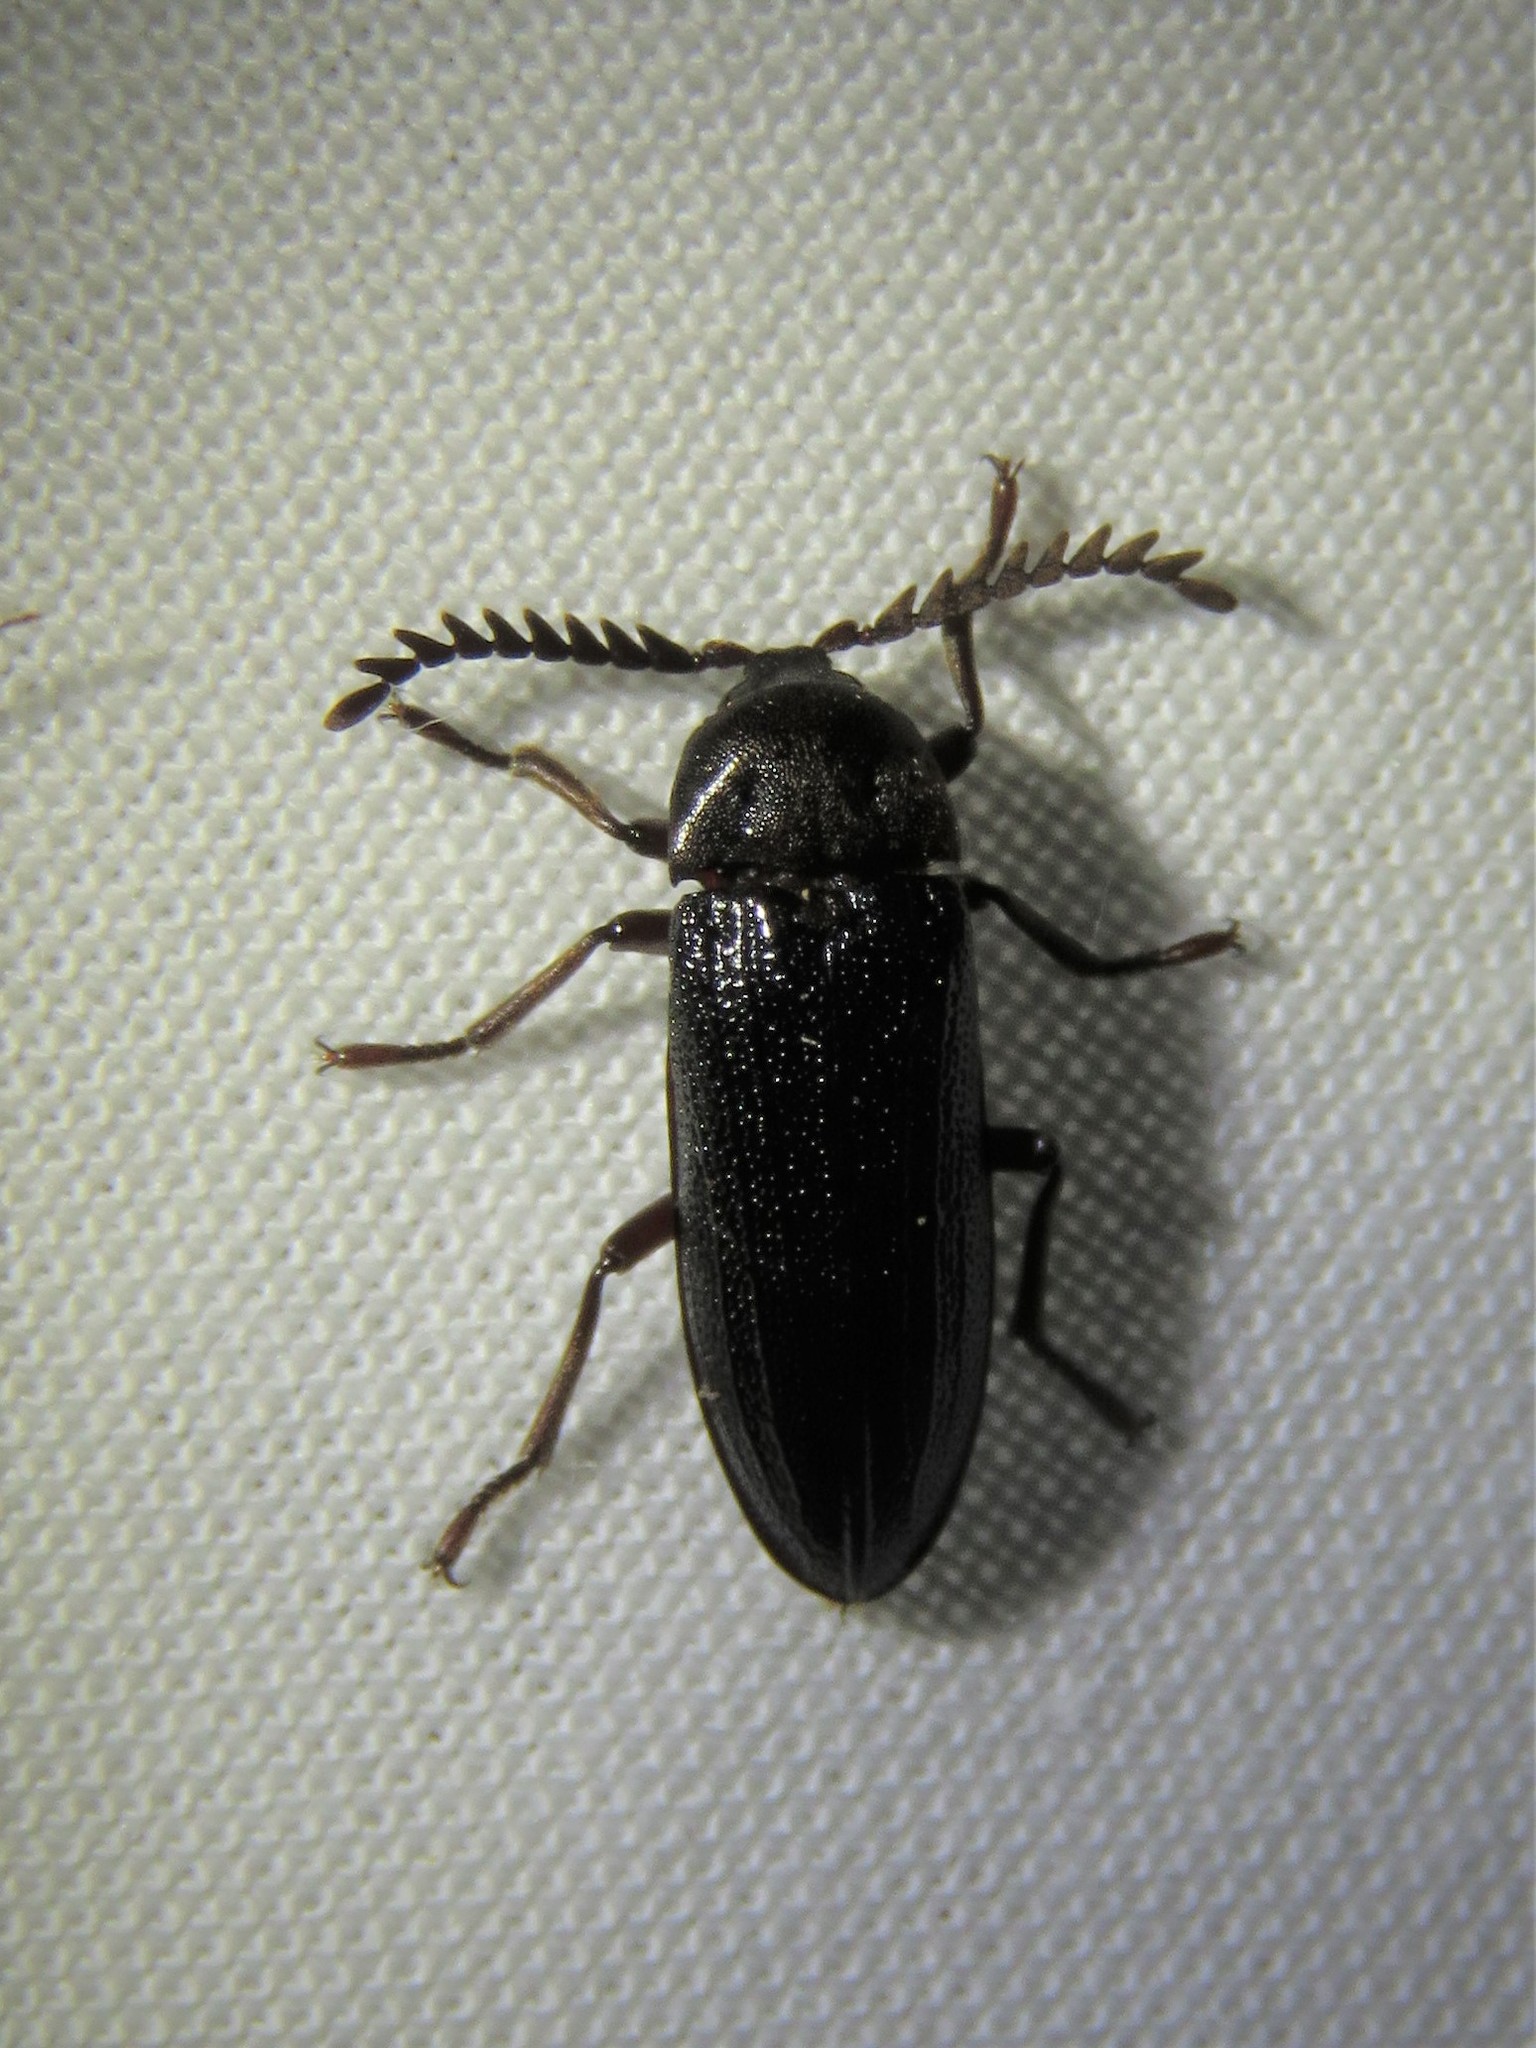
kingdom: Animalia
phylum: Arthropoda
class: Insecta
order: Coleoptera
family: Callirhipidae
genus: Zenoa
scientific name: Zenoa picea
